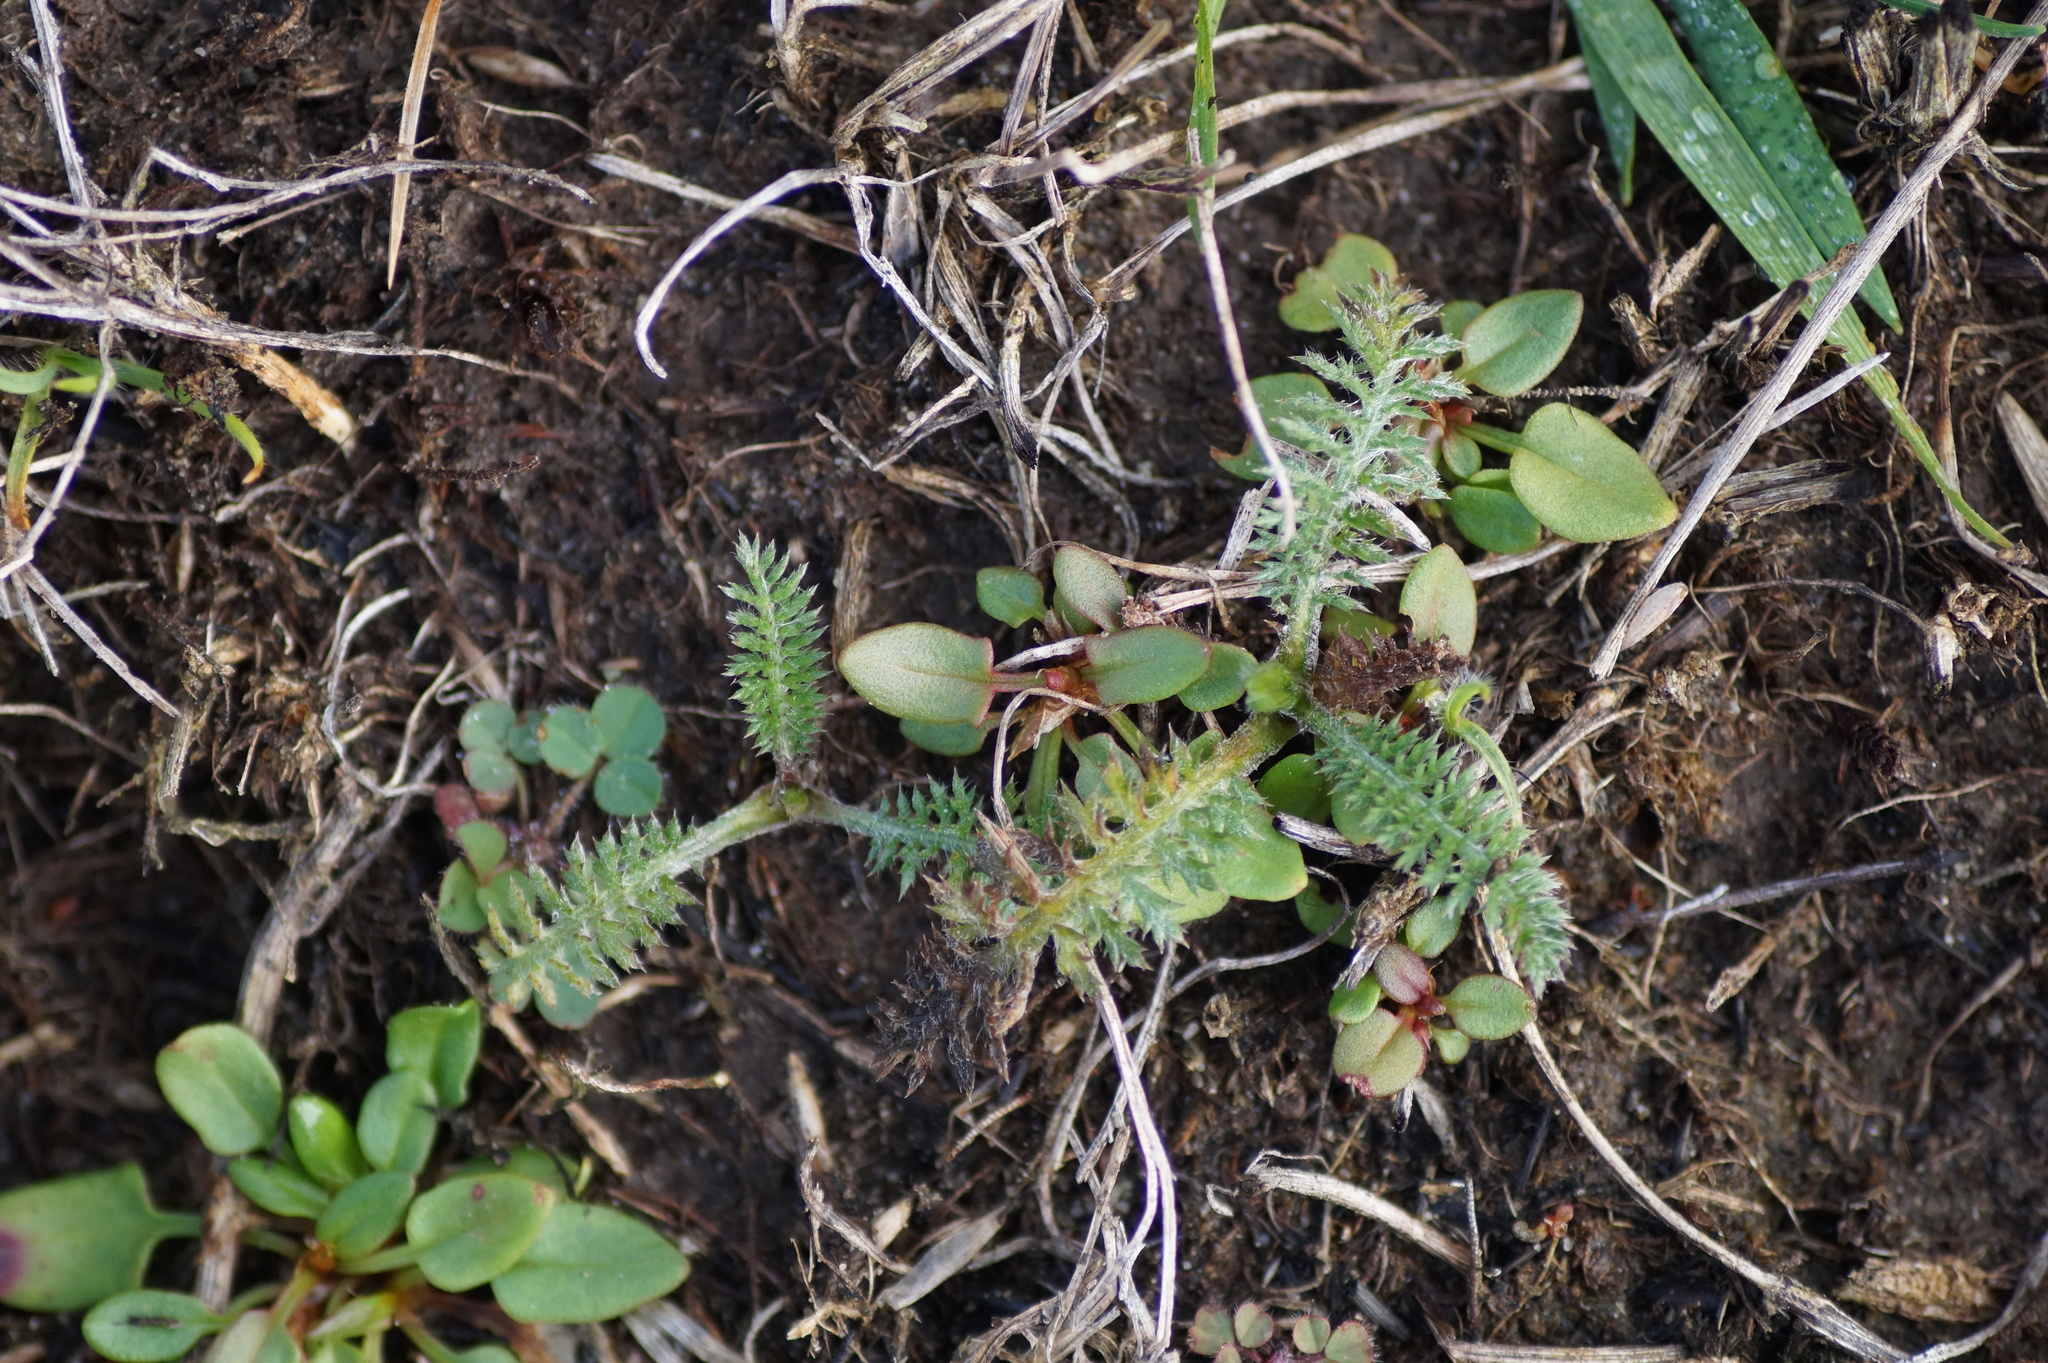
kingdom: Plantae
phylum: Tracheophyta
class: Magnoliopsida
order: Asterales
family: Asteraceae
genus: Achillea
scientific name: Achillea millefolium
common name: Yarrow
